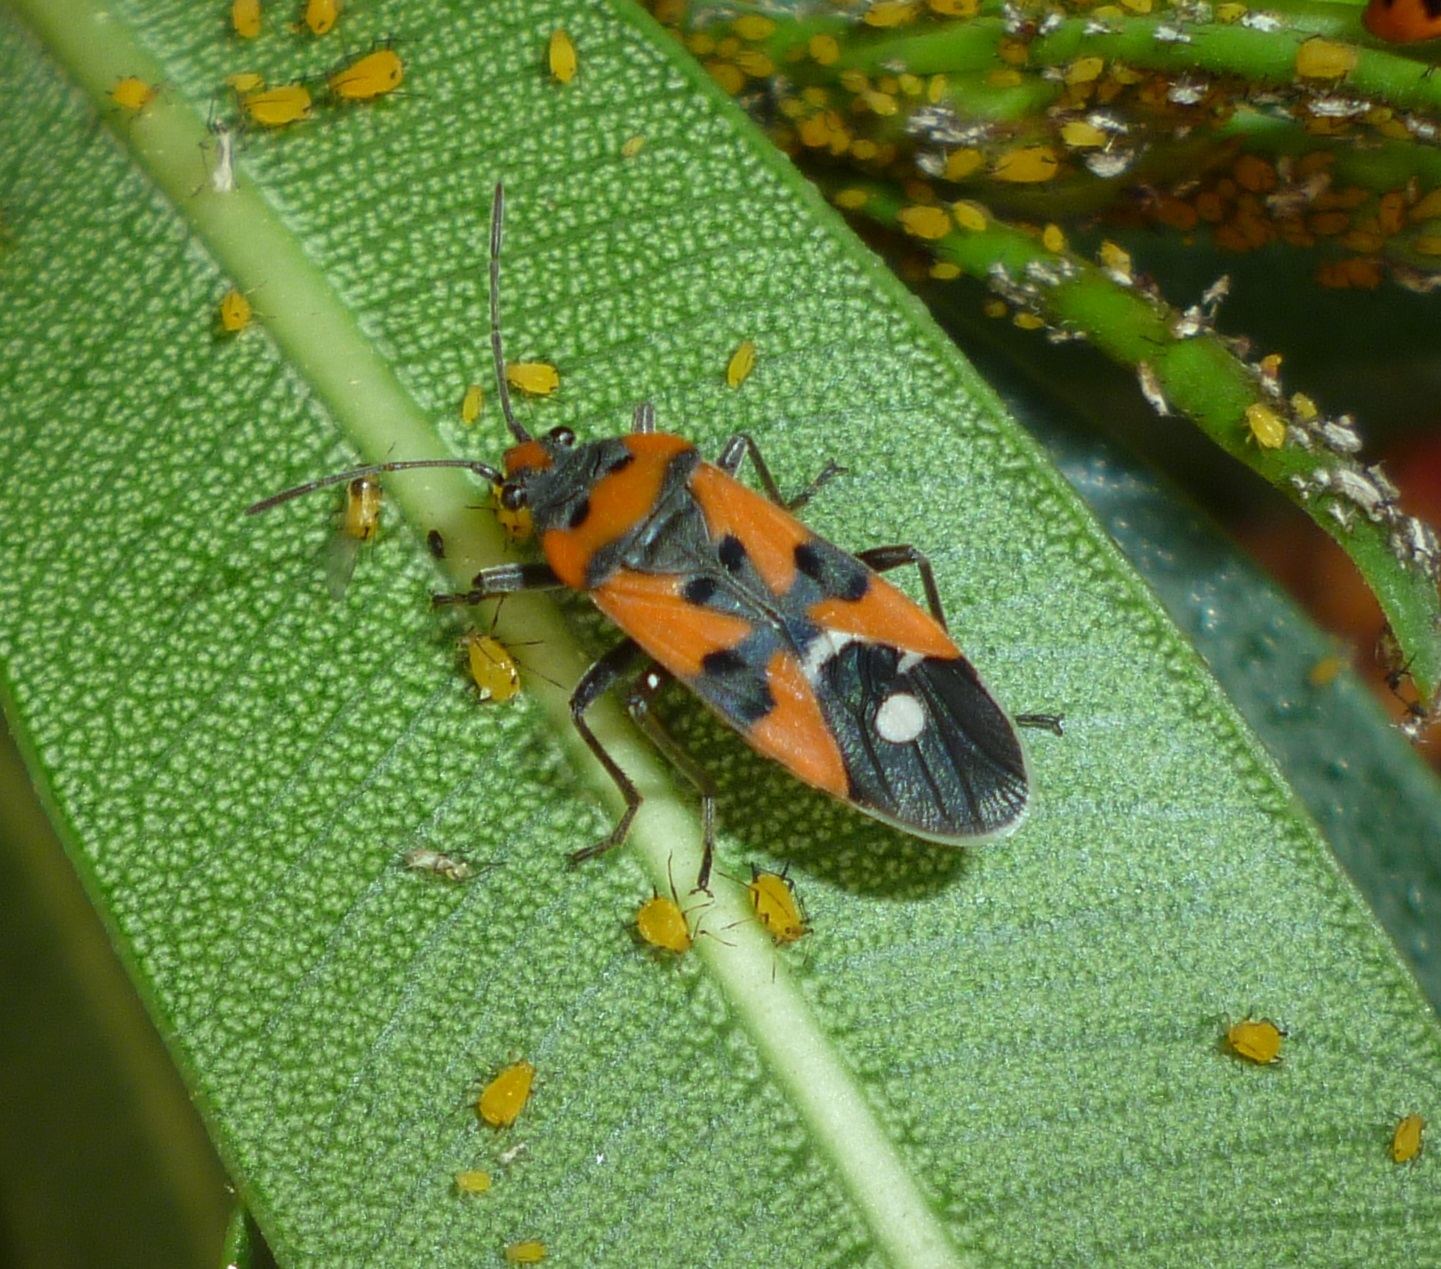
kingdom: Animalia
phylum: Arthropoda
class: Insecta
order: Hemiptera
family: Lygaeidae
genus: Lygaeus
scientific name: Lygaeus equestris
